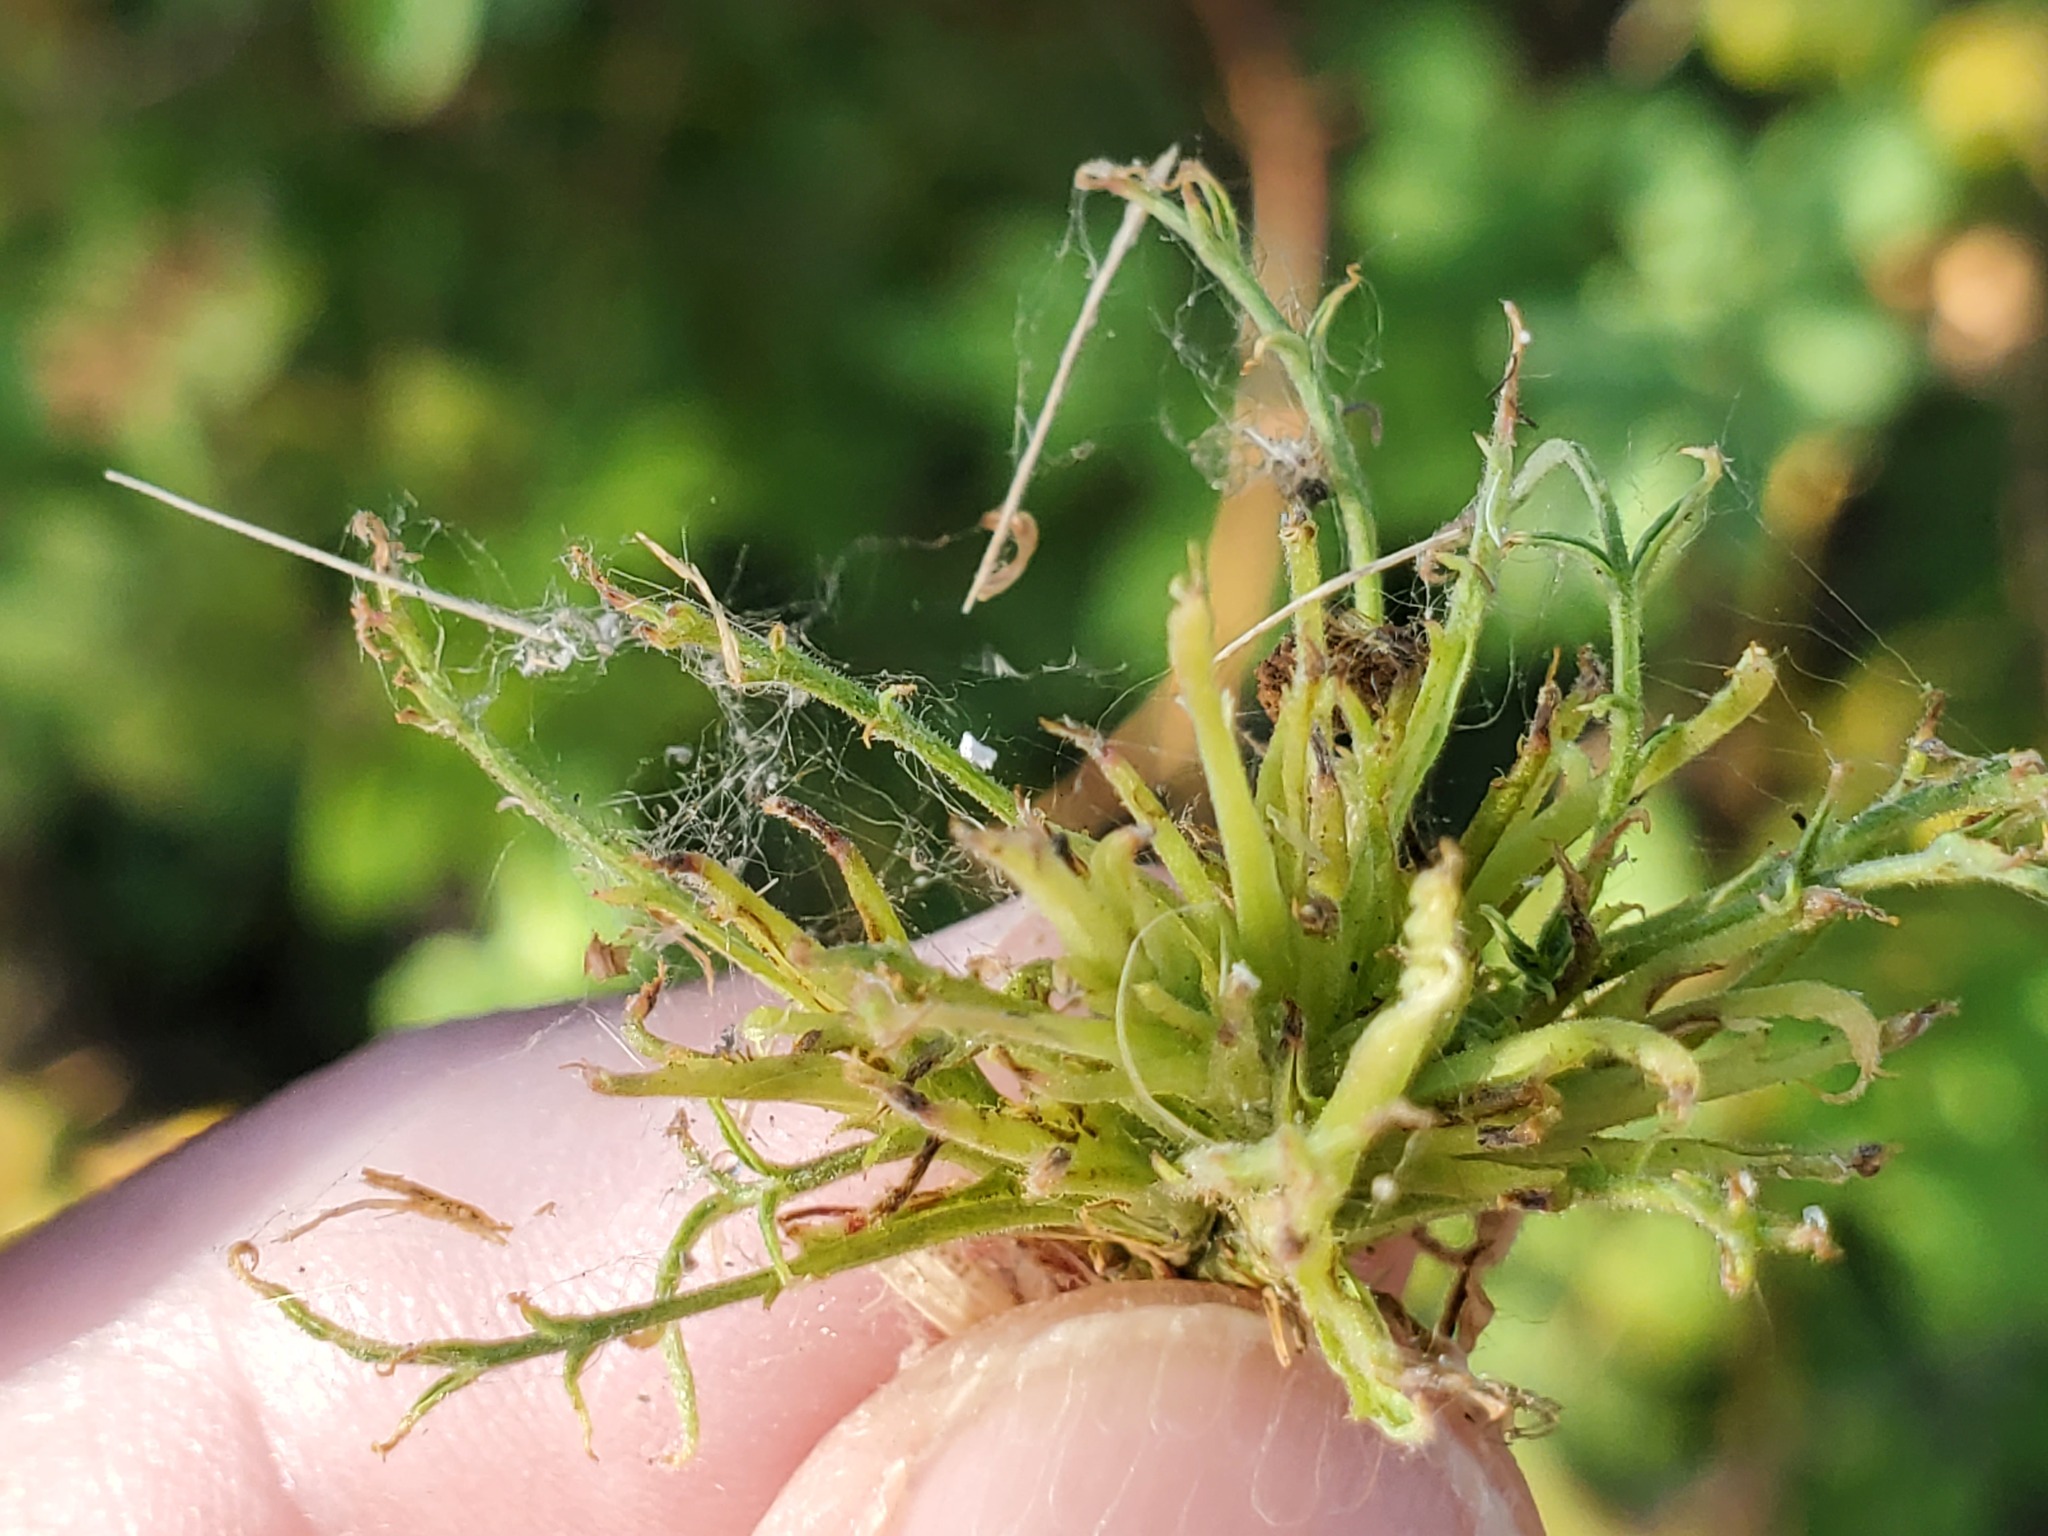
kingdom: Viruses
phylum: Negarnaviricota
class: Ellioviricetes
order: Bunyavirales
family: Fimoviridae
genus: Emaravirus
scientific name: Emaravirus rosae
